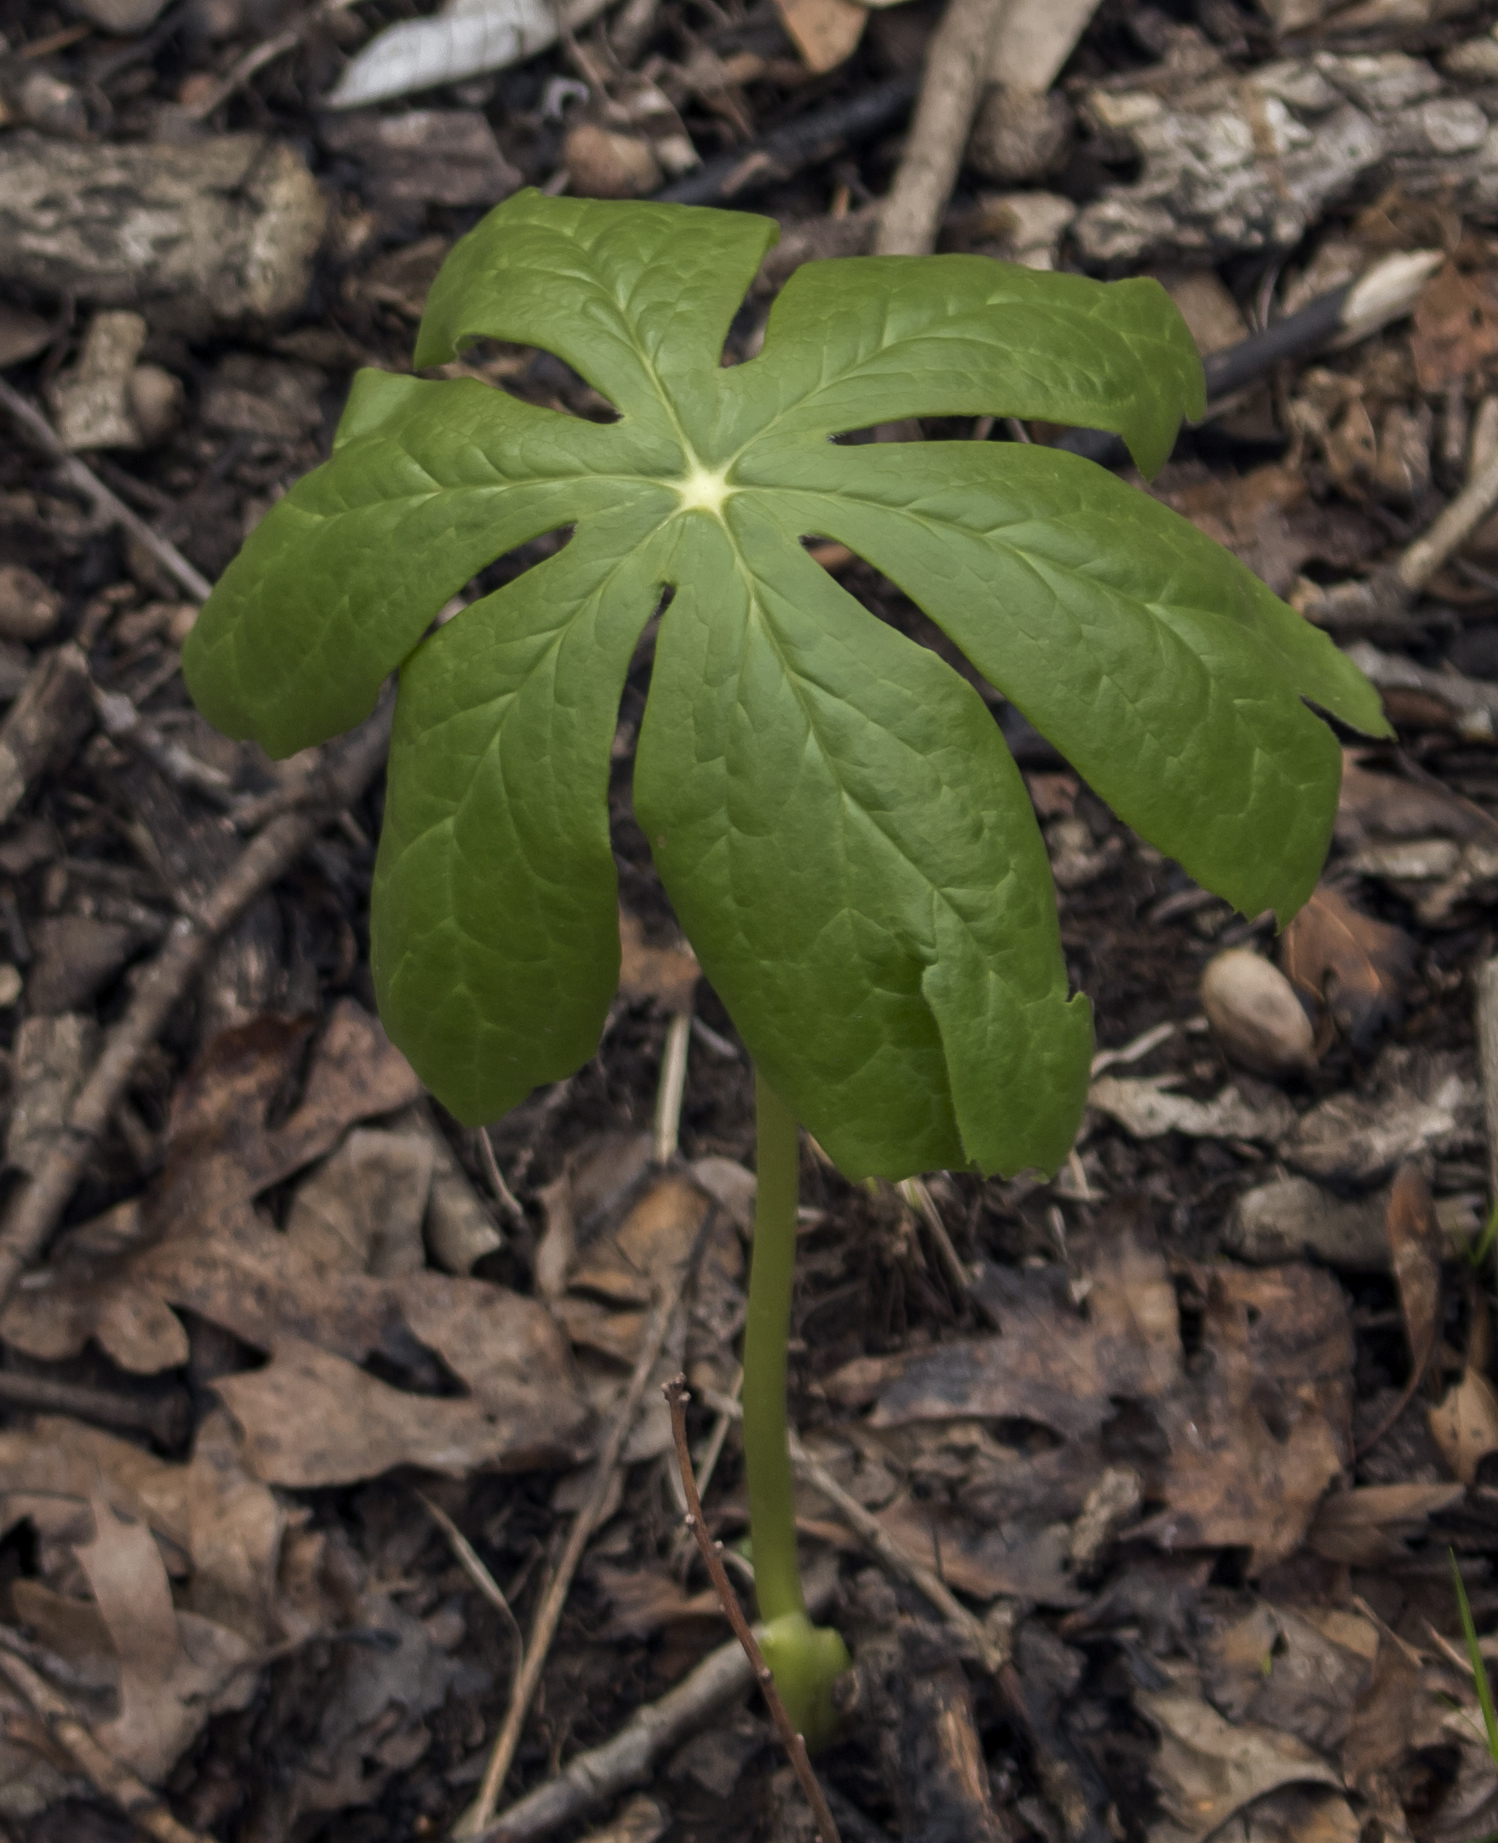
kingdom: Plantae
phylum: Tracheophyta
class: Magnoliopsida
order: Ranunculales
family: Berberidaceae
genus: Podophyllum
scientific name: Podophyllum peltatum
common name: Wild mandrake
